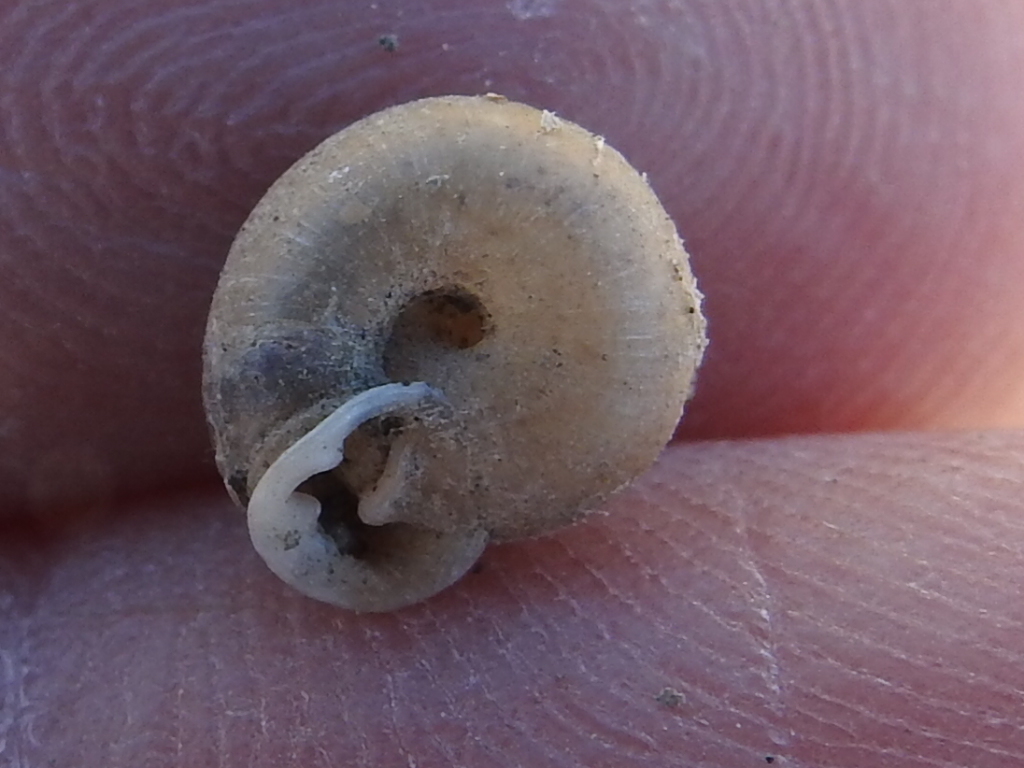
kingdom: Animalia
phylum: Mollusca
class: Gastropoda
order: Stylommatophora
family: Polygyridae
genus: Linisa
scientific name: Linisa texasiana
